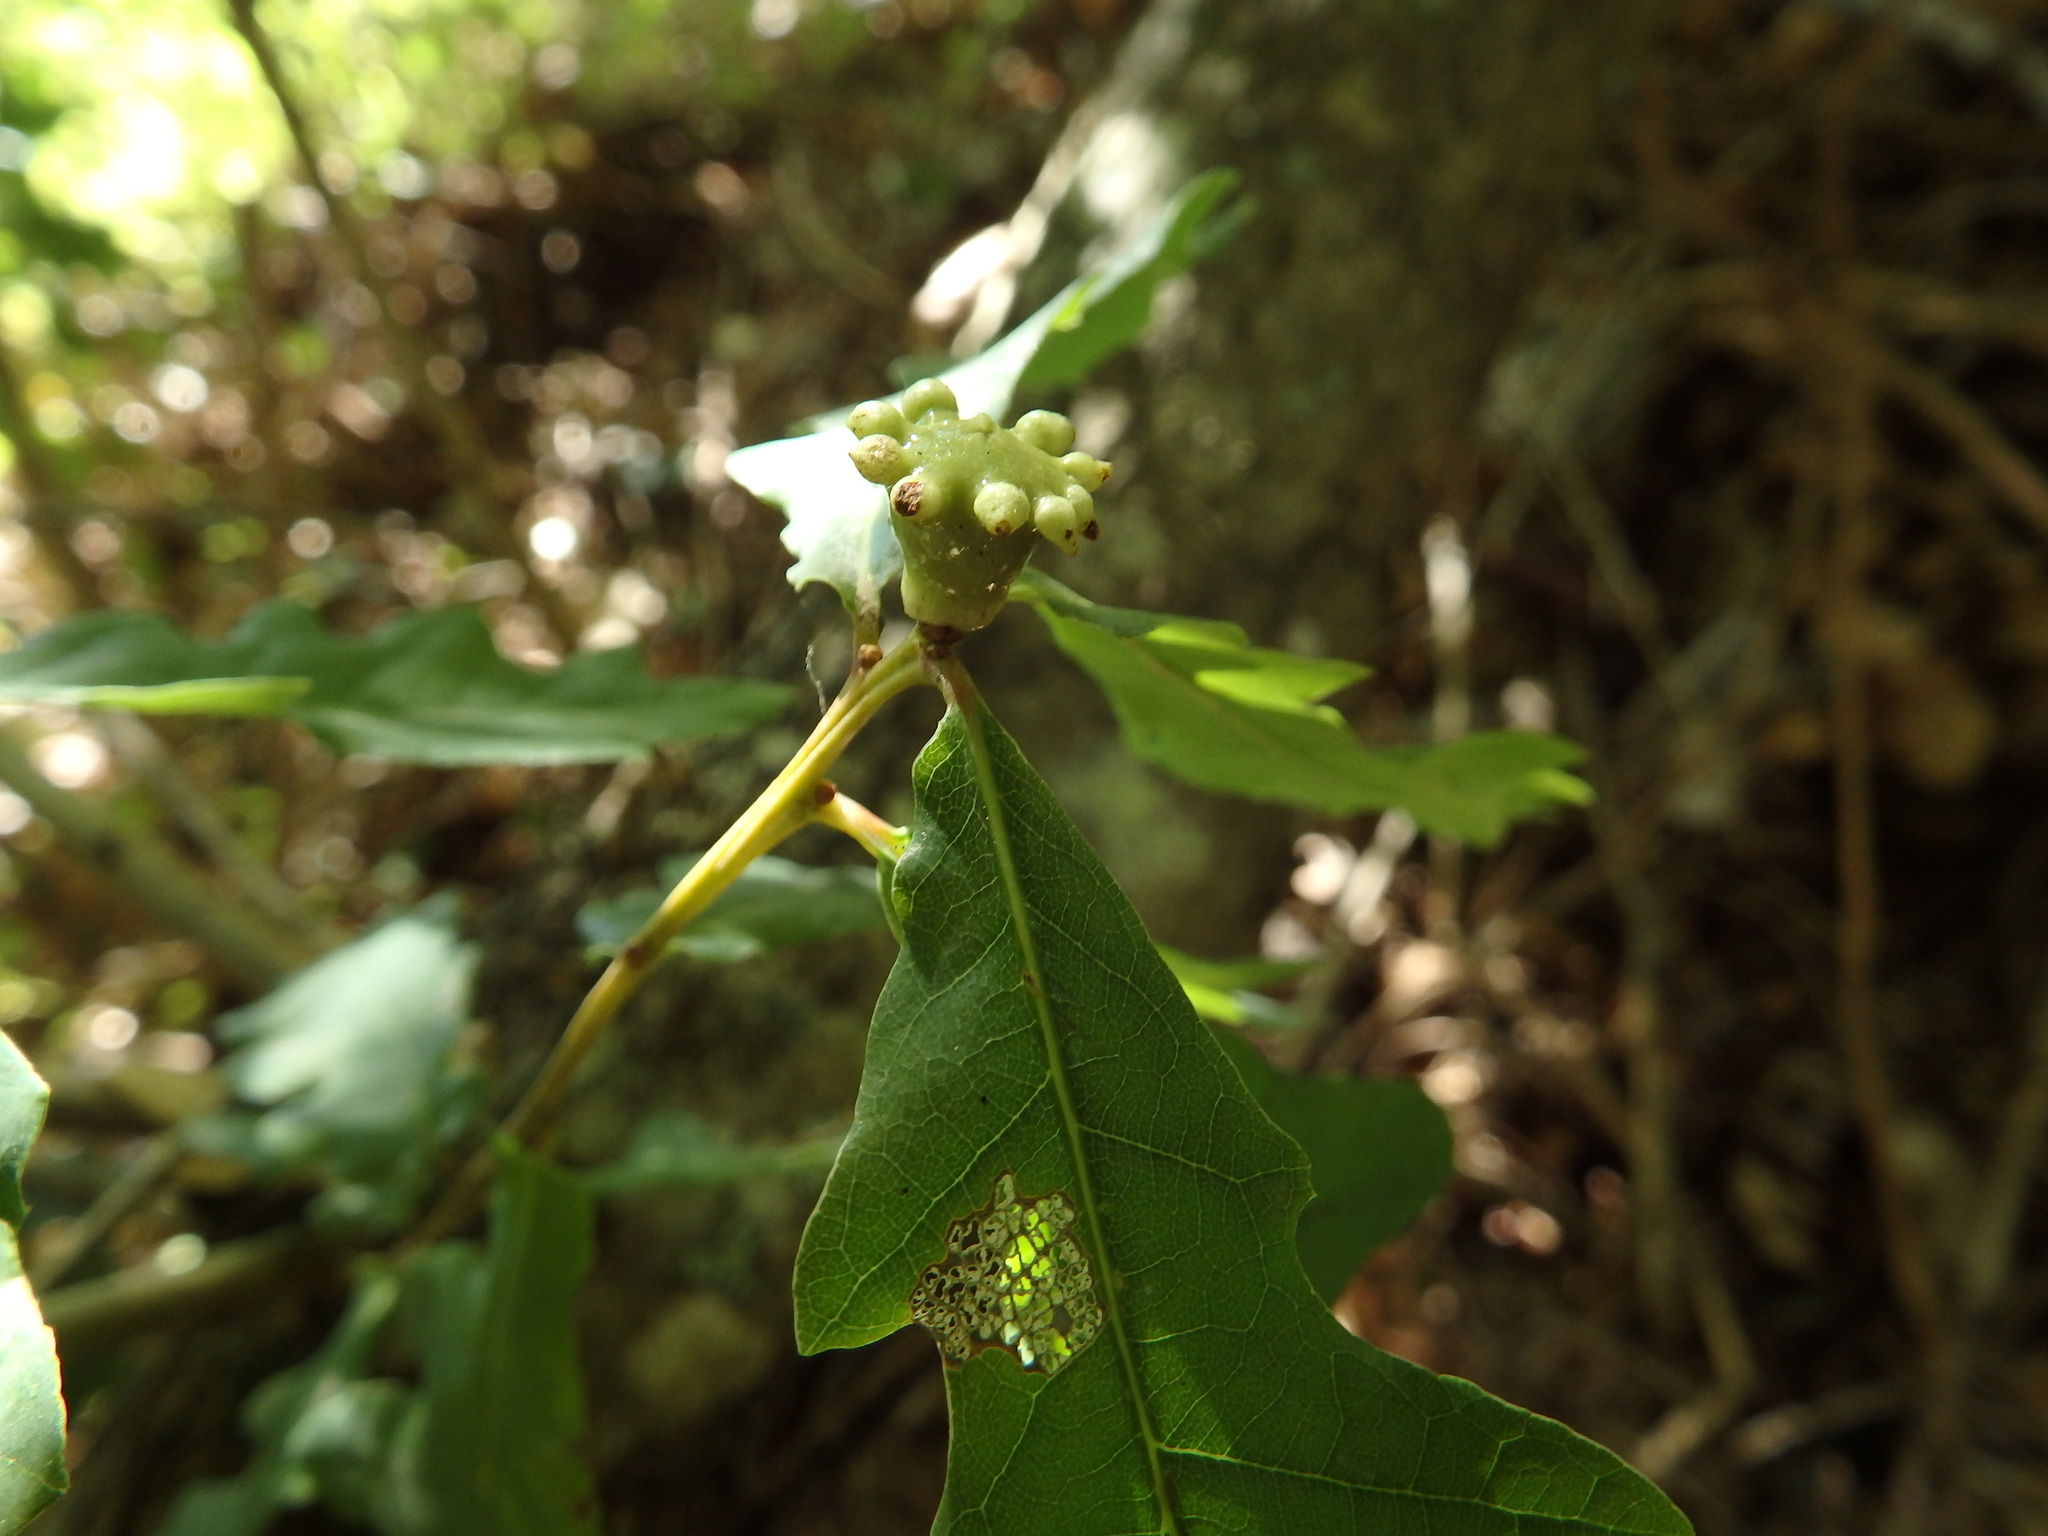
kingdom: Animalia
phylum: Arthropoda
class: Insecta
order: Hymenoptera
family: Cynipidae
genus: Andricus
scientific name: Andricus quercustozae
